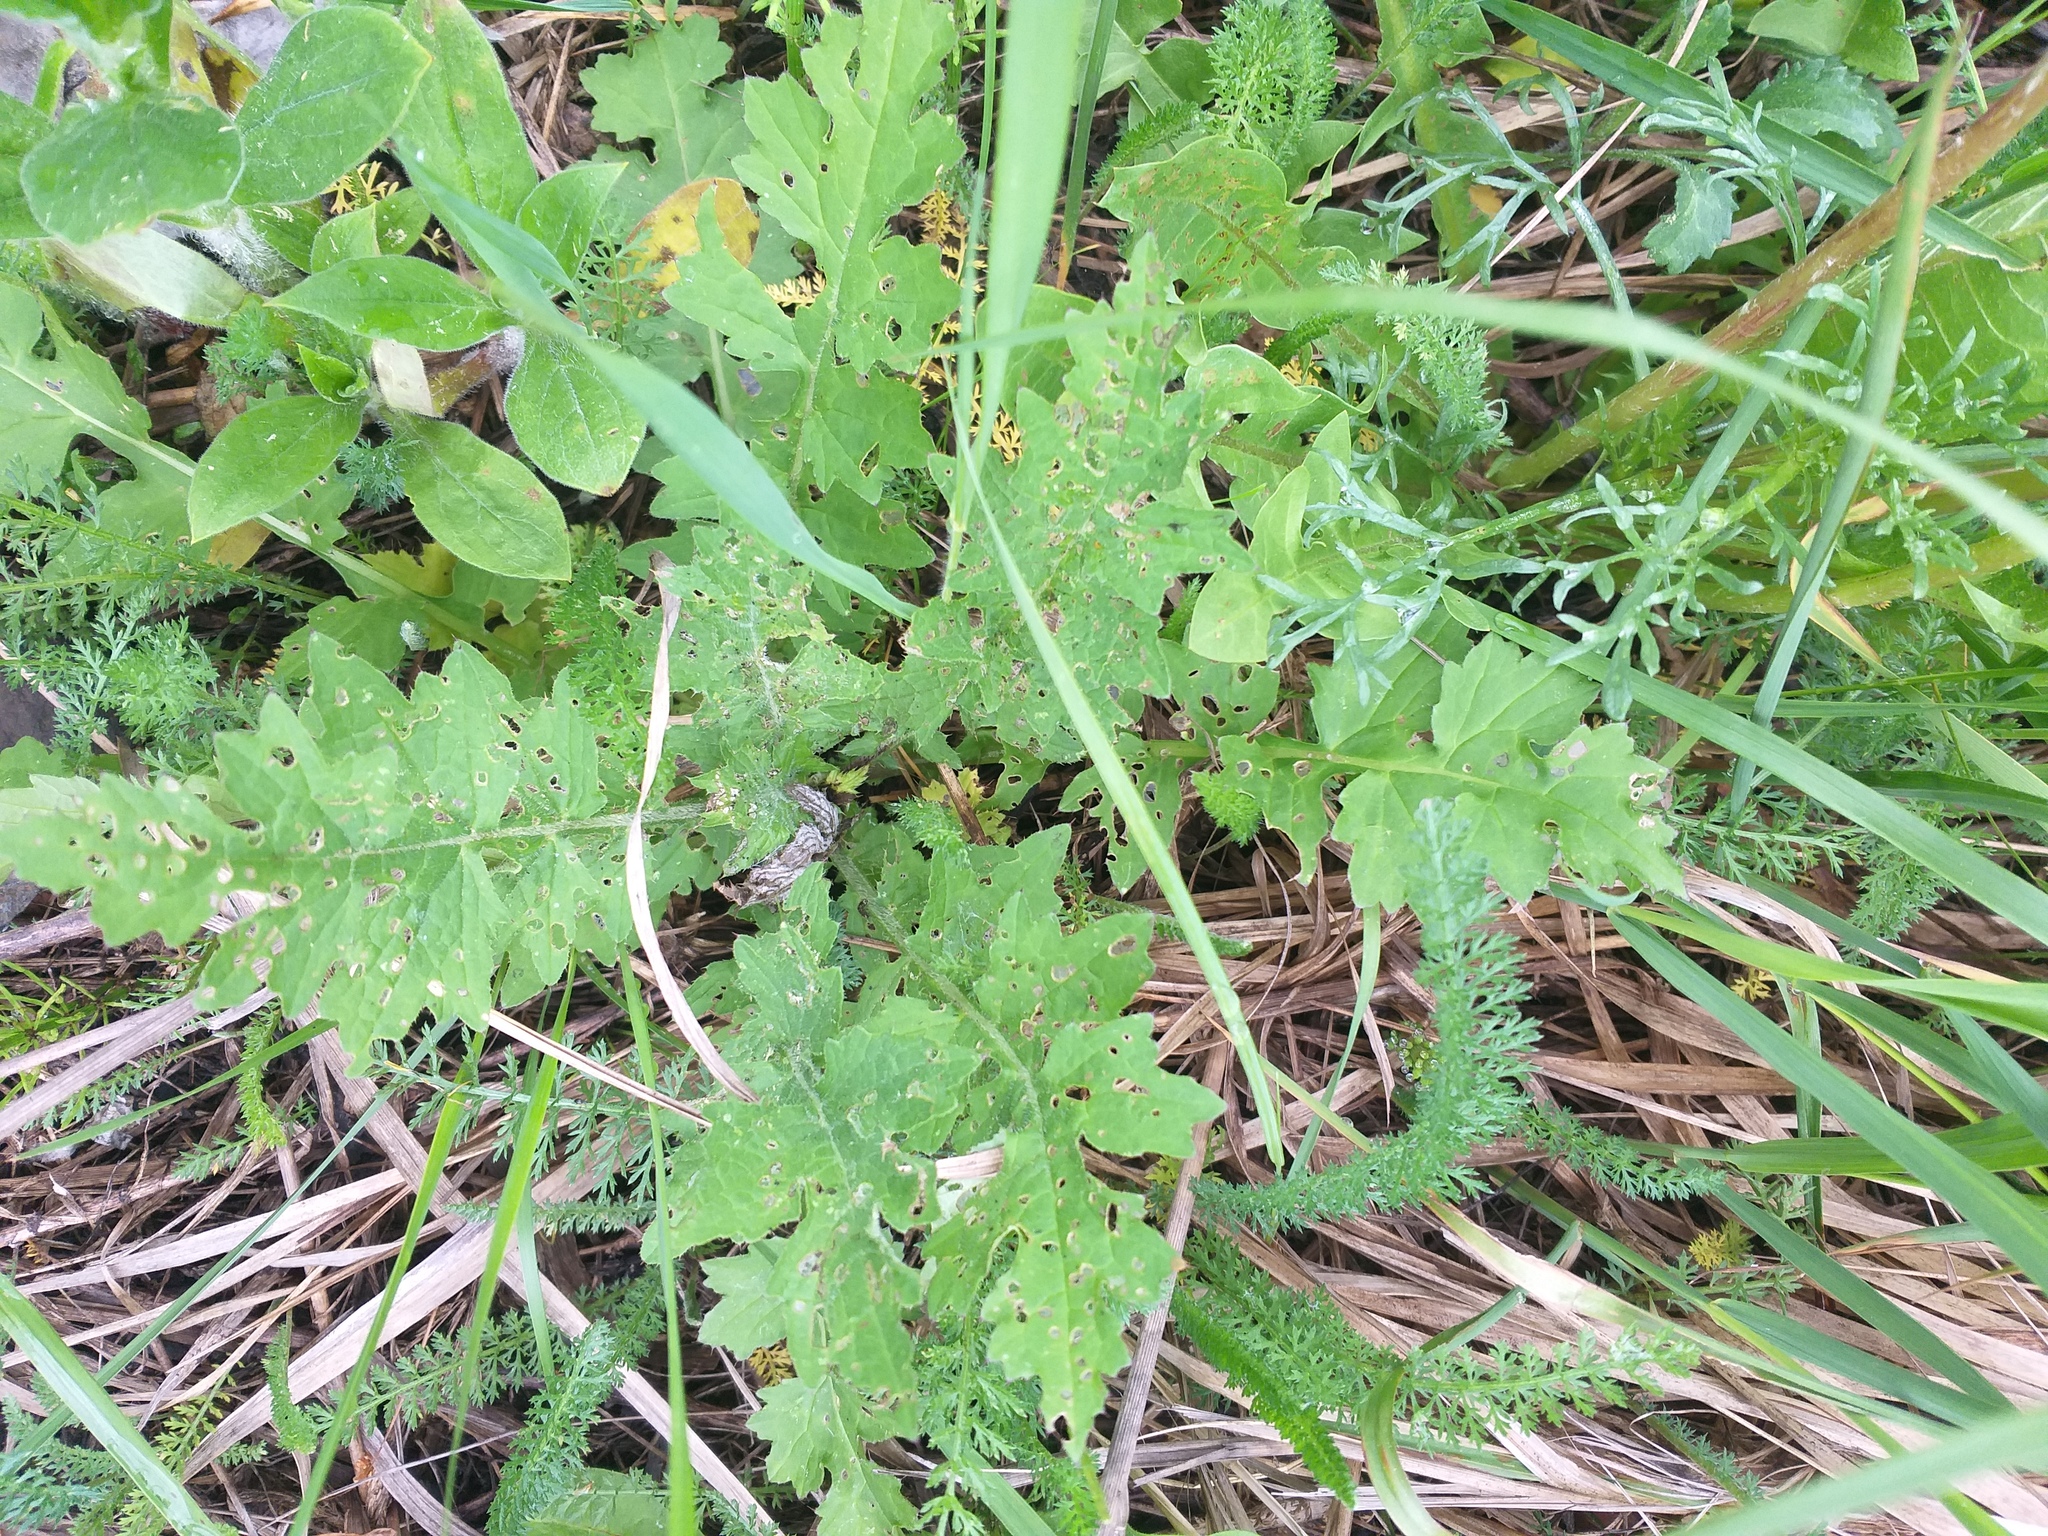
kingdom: Plantae
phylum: Tracheophyta
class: Magnoliopsida
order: Asterales
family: Asteraceae
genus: Carduus
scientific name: Carduus crispus
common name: Welted thistle
